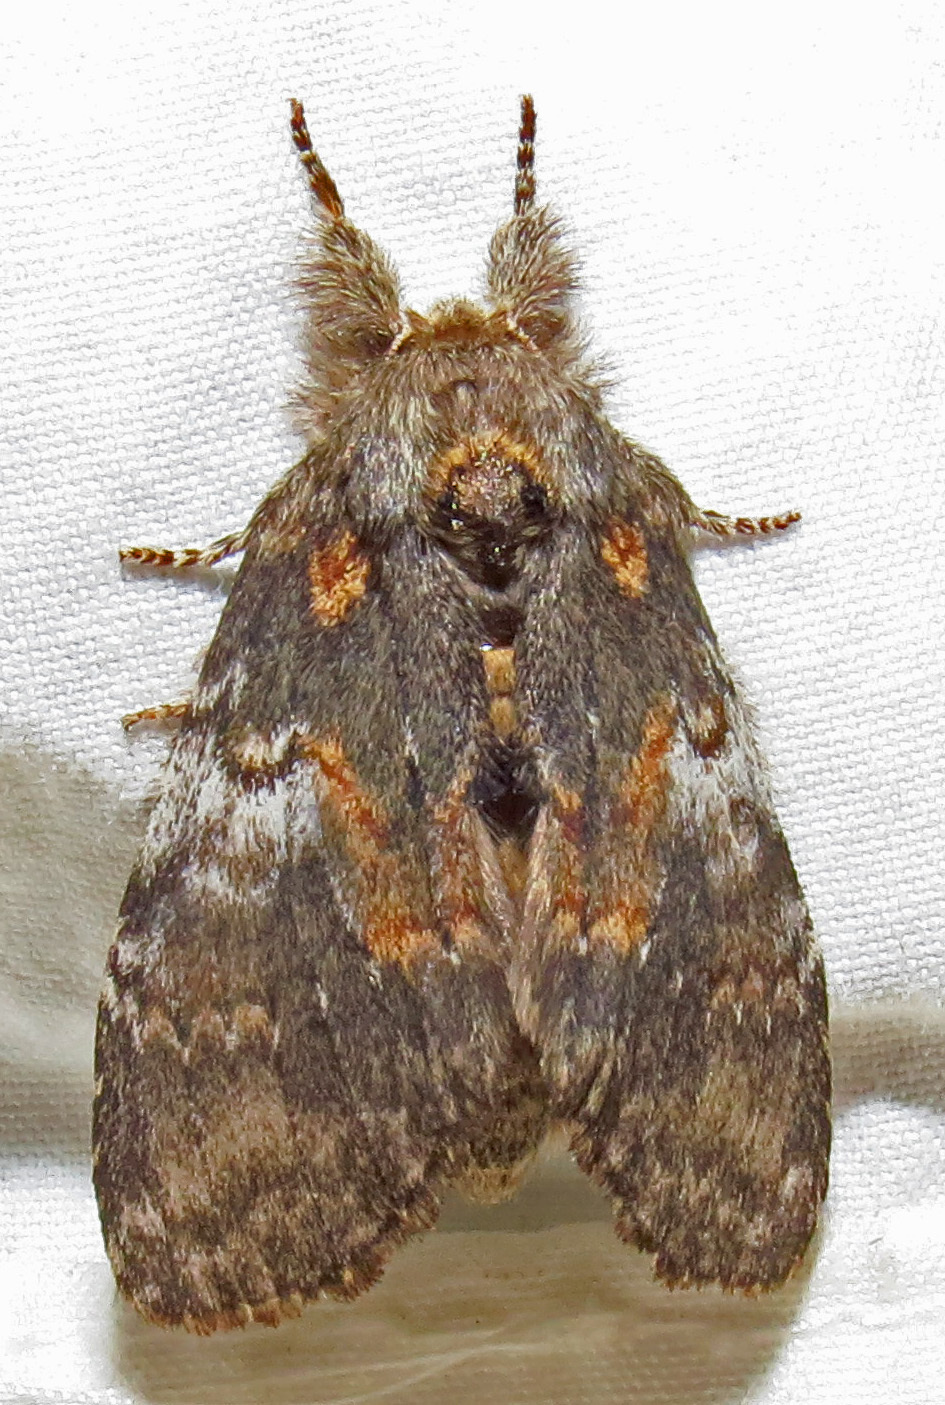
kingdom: Animalia
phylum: Arthropoda
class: Insecta
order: Lepidoptera
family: Notodontidae
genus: Peridea
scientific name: Peridea angulosa
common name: Angulose prominent
